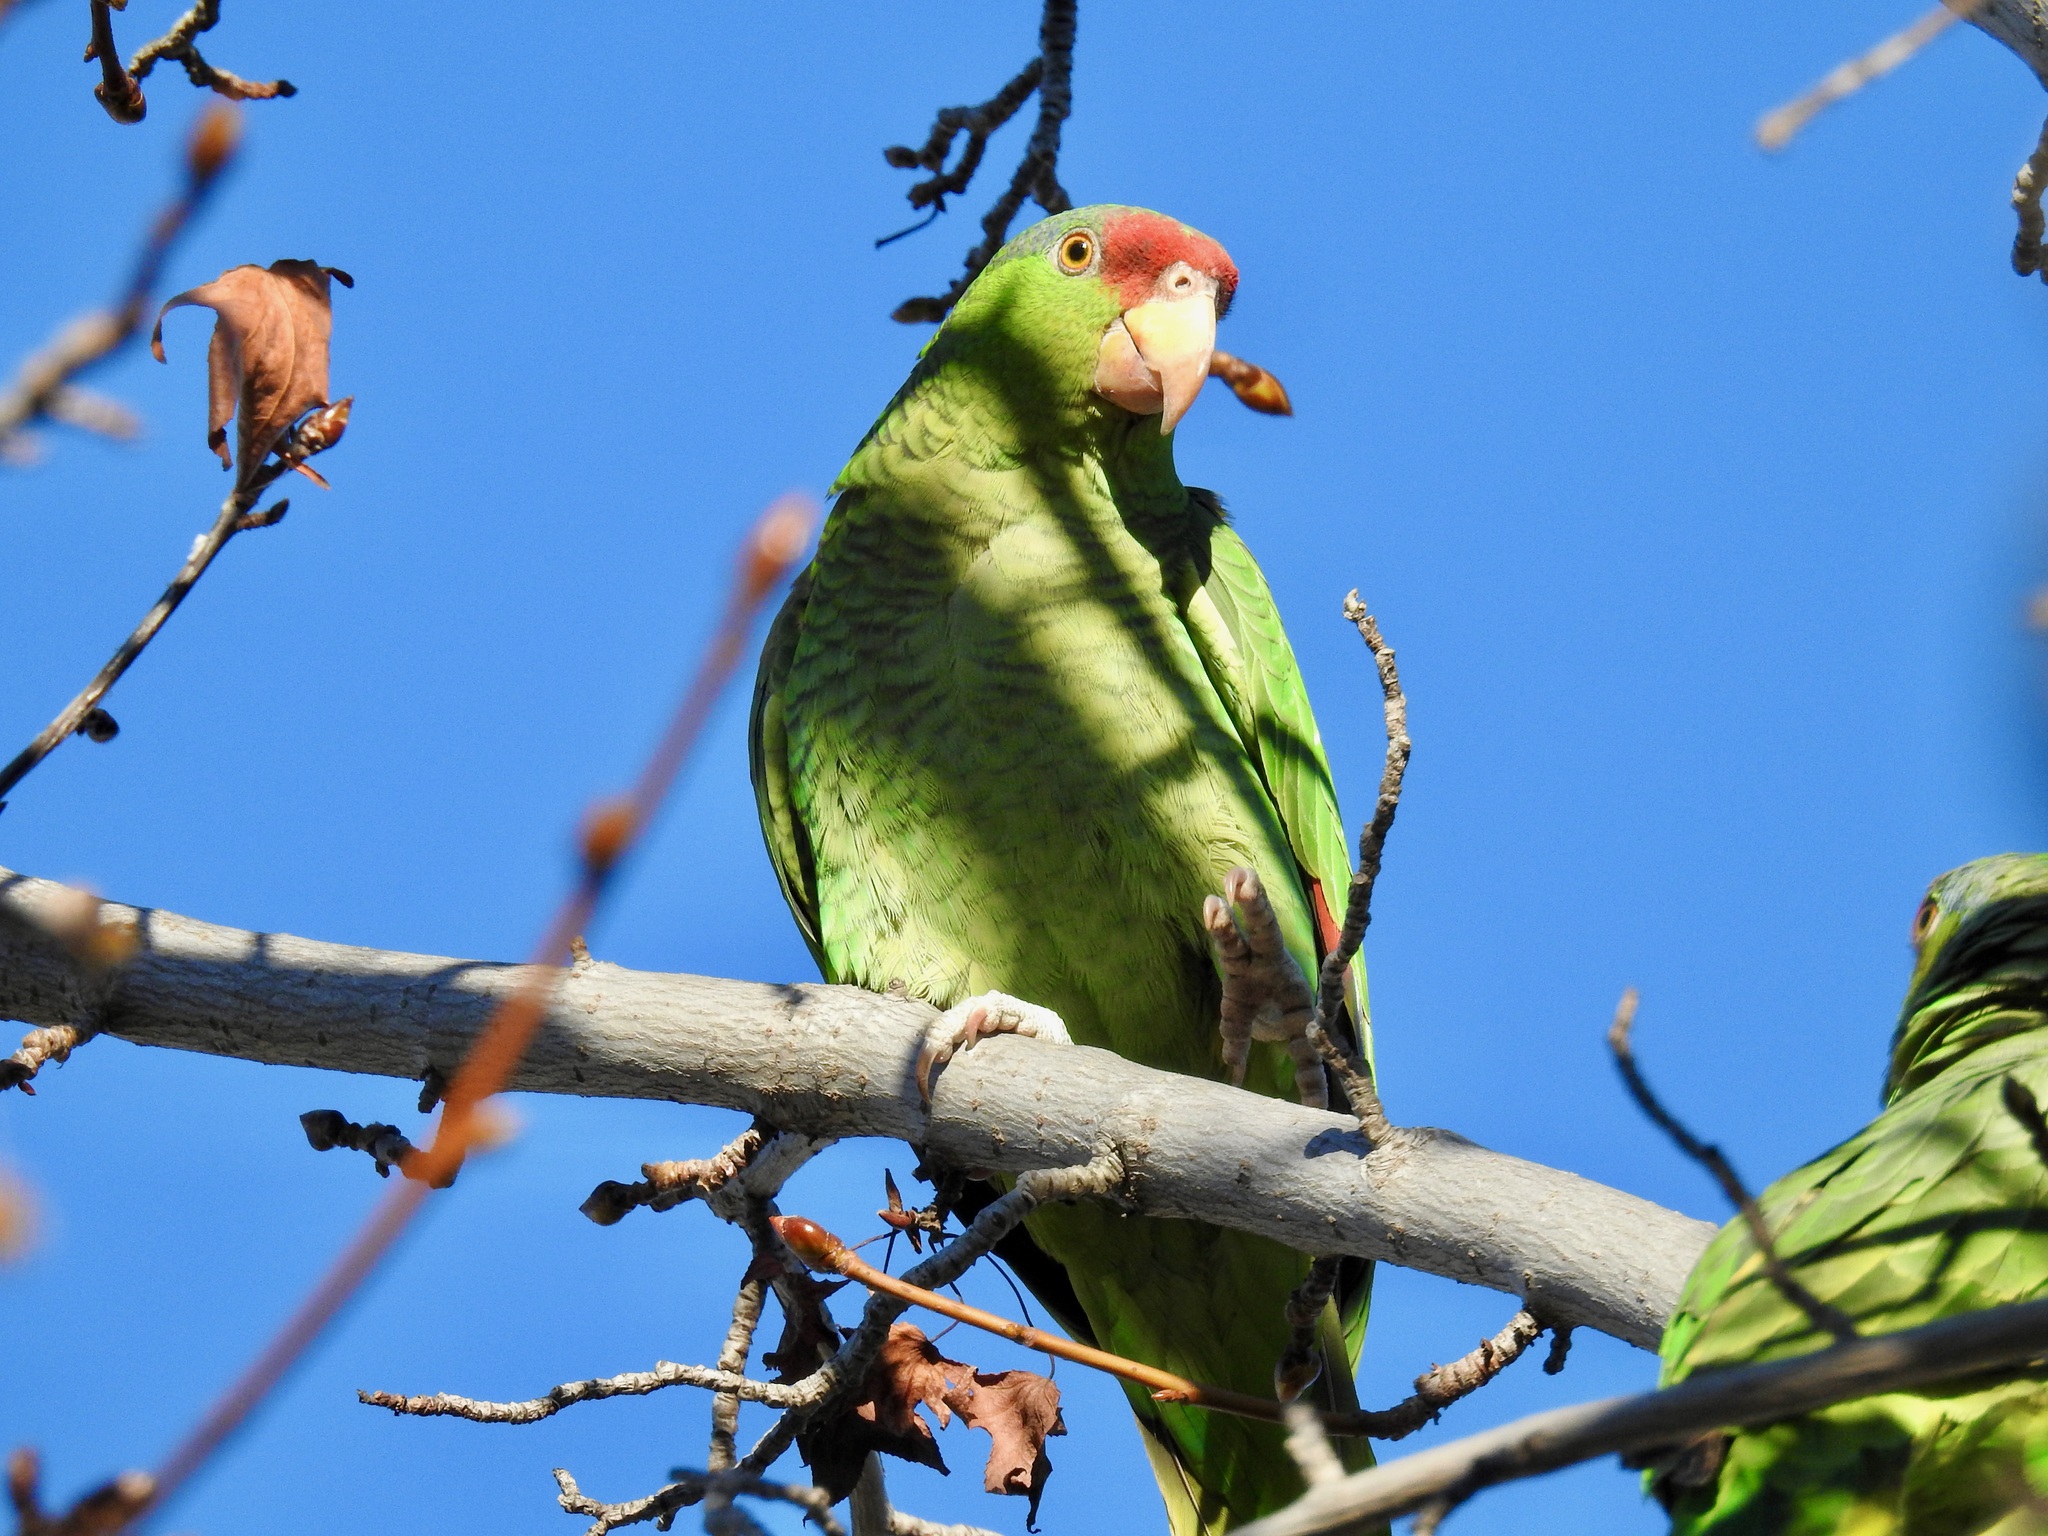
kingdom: Animalia
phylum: Chordata
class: Aves
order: Psittaciformes
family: Psittacidae
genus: Amazona
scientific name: Amazona viridigenalis
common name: Red-crowned amazon
